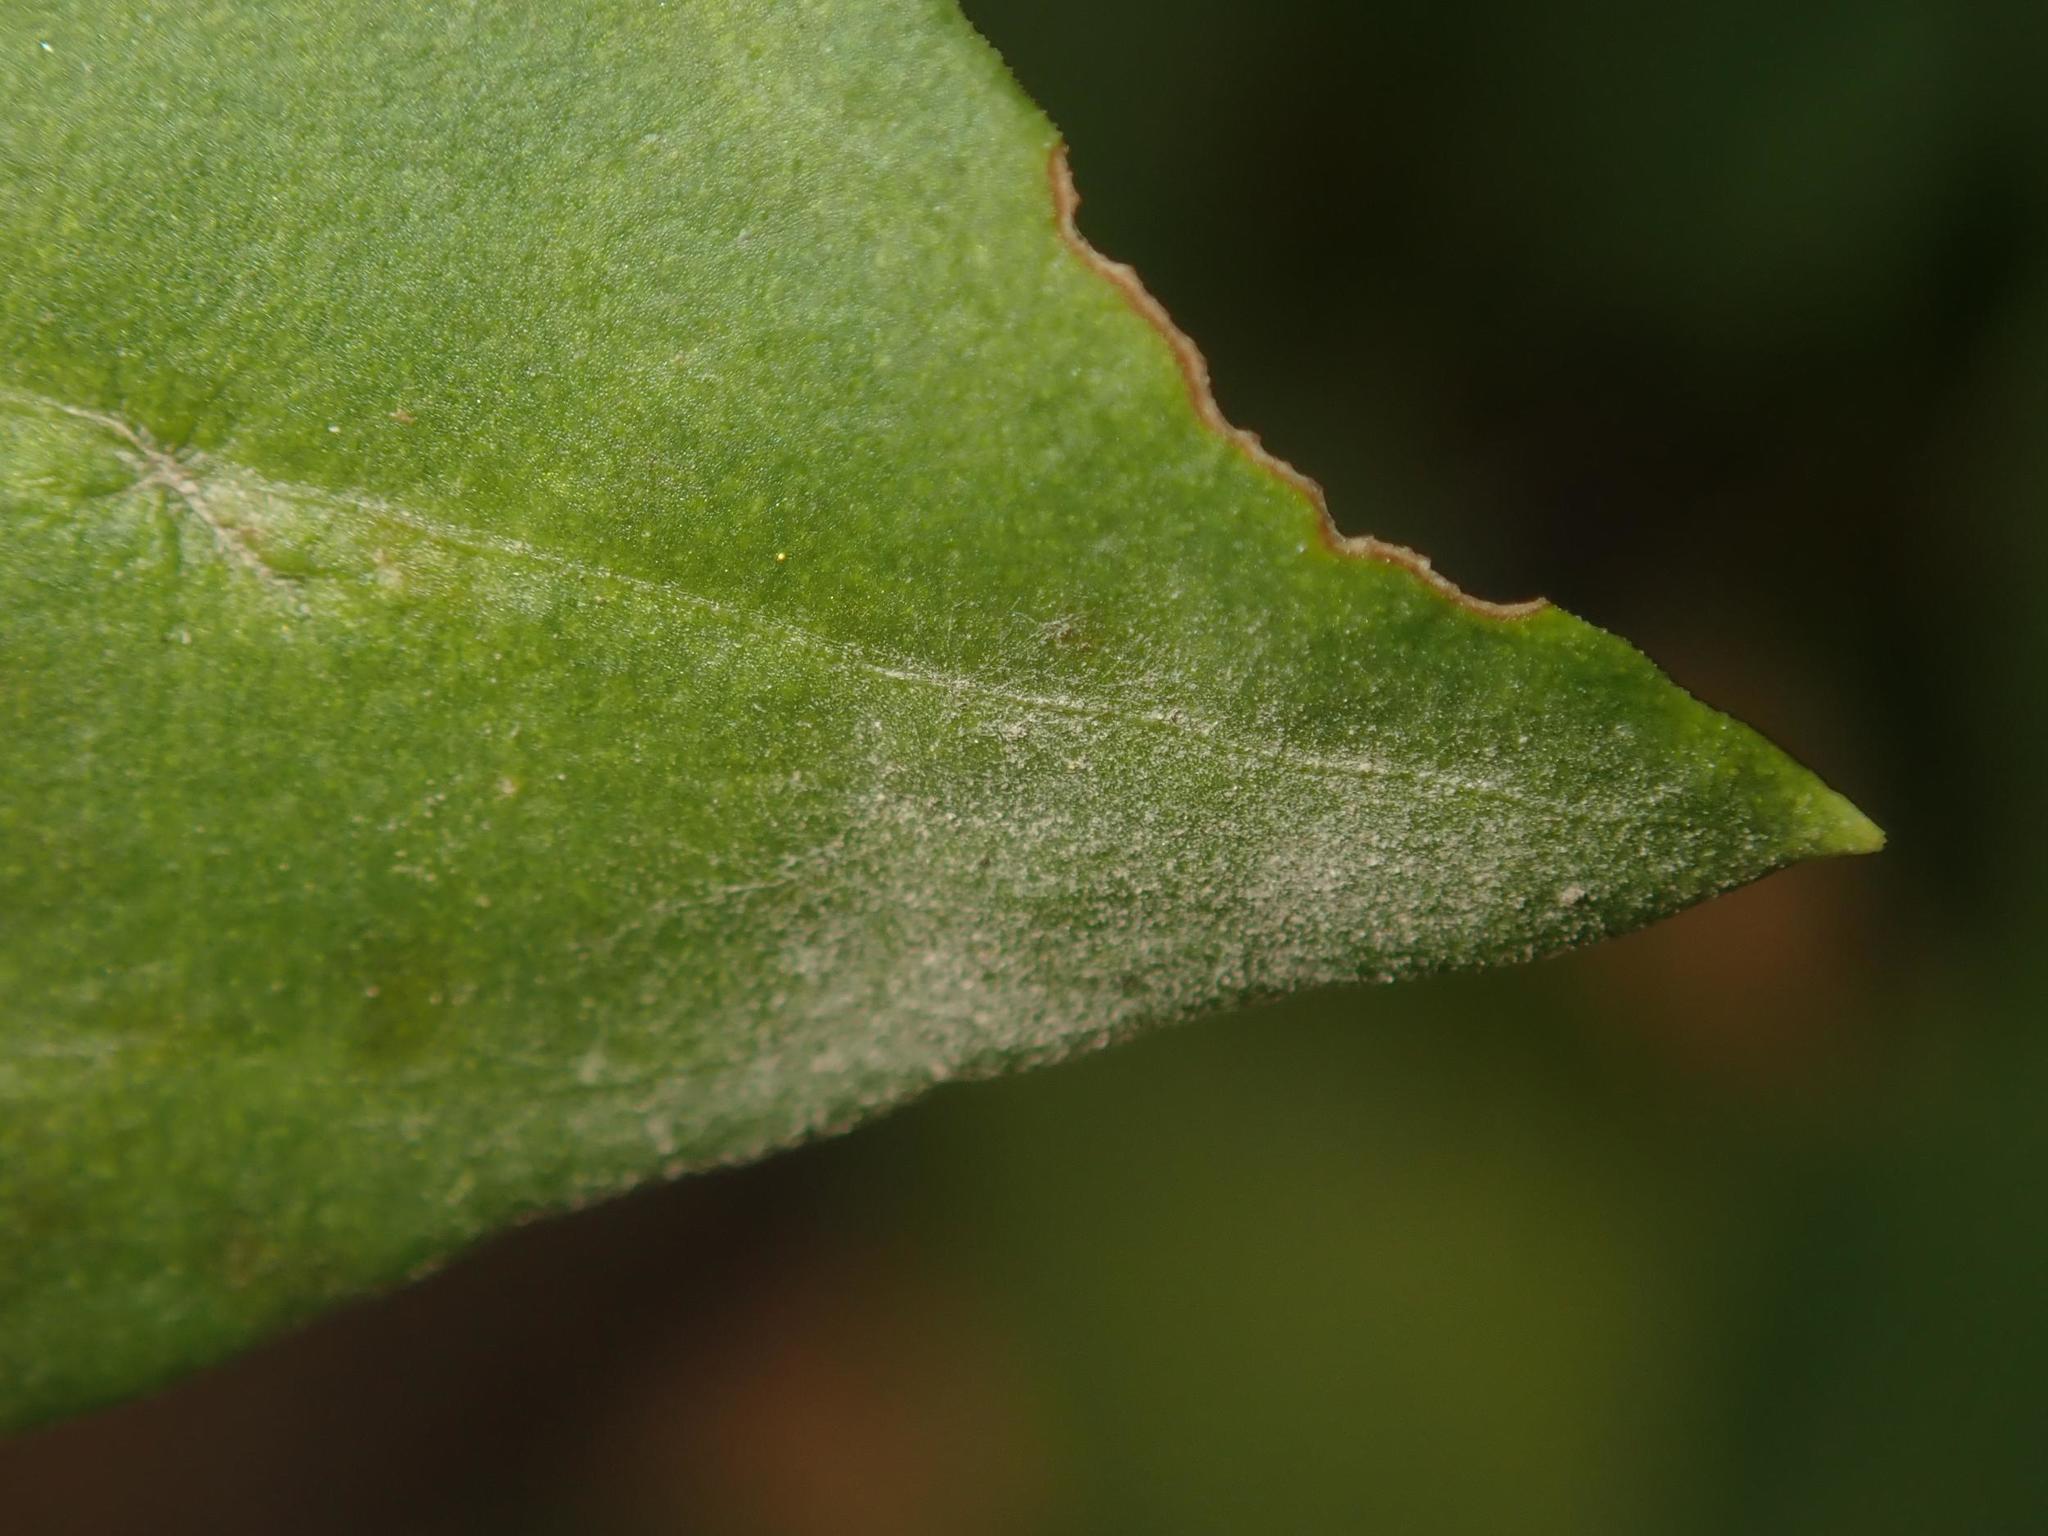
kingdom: Fungi
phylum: Ascomycota
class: Leotiomycetes
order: Helotiales
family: Erysiphaceae
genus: Erysiphe
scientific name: Erysiphe polygoni
